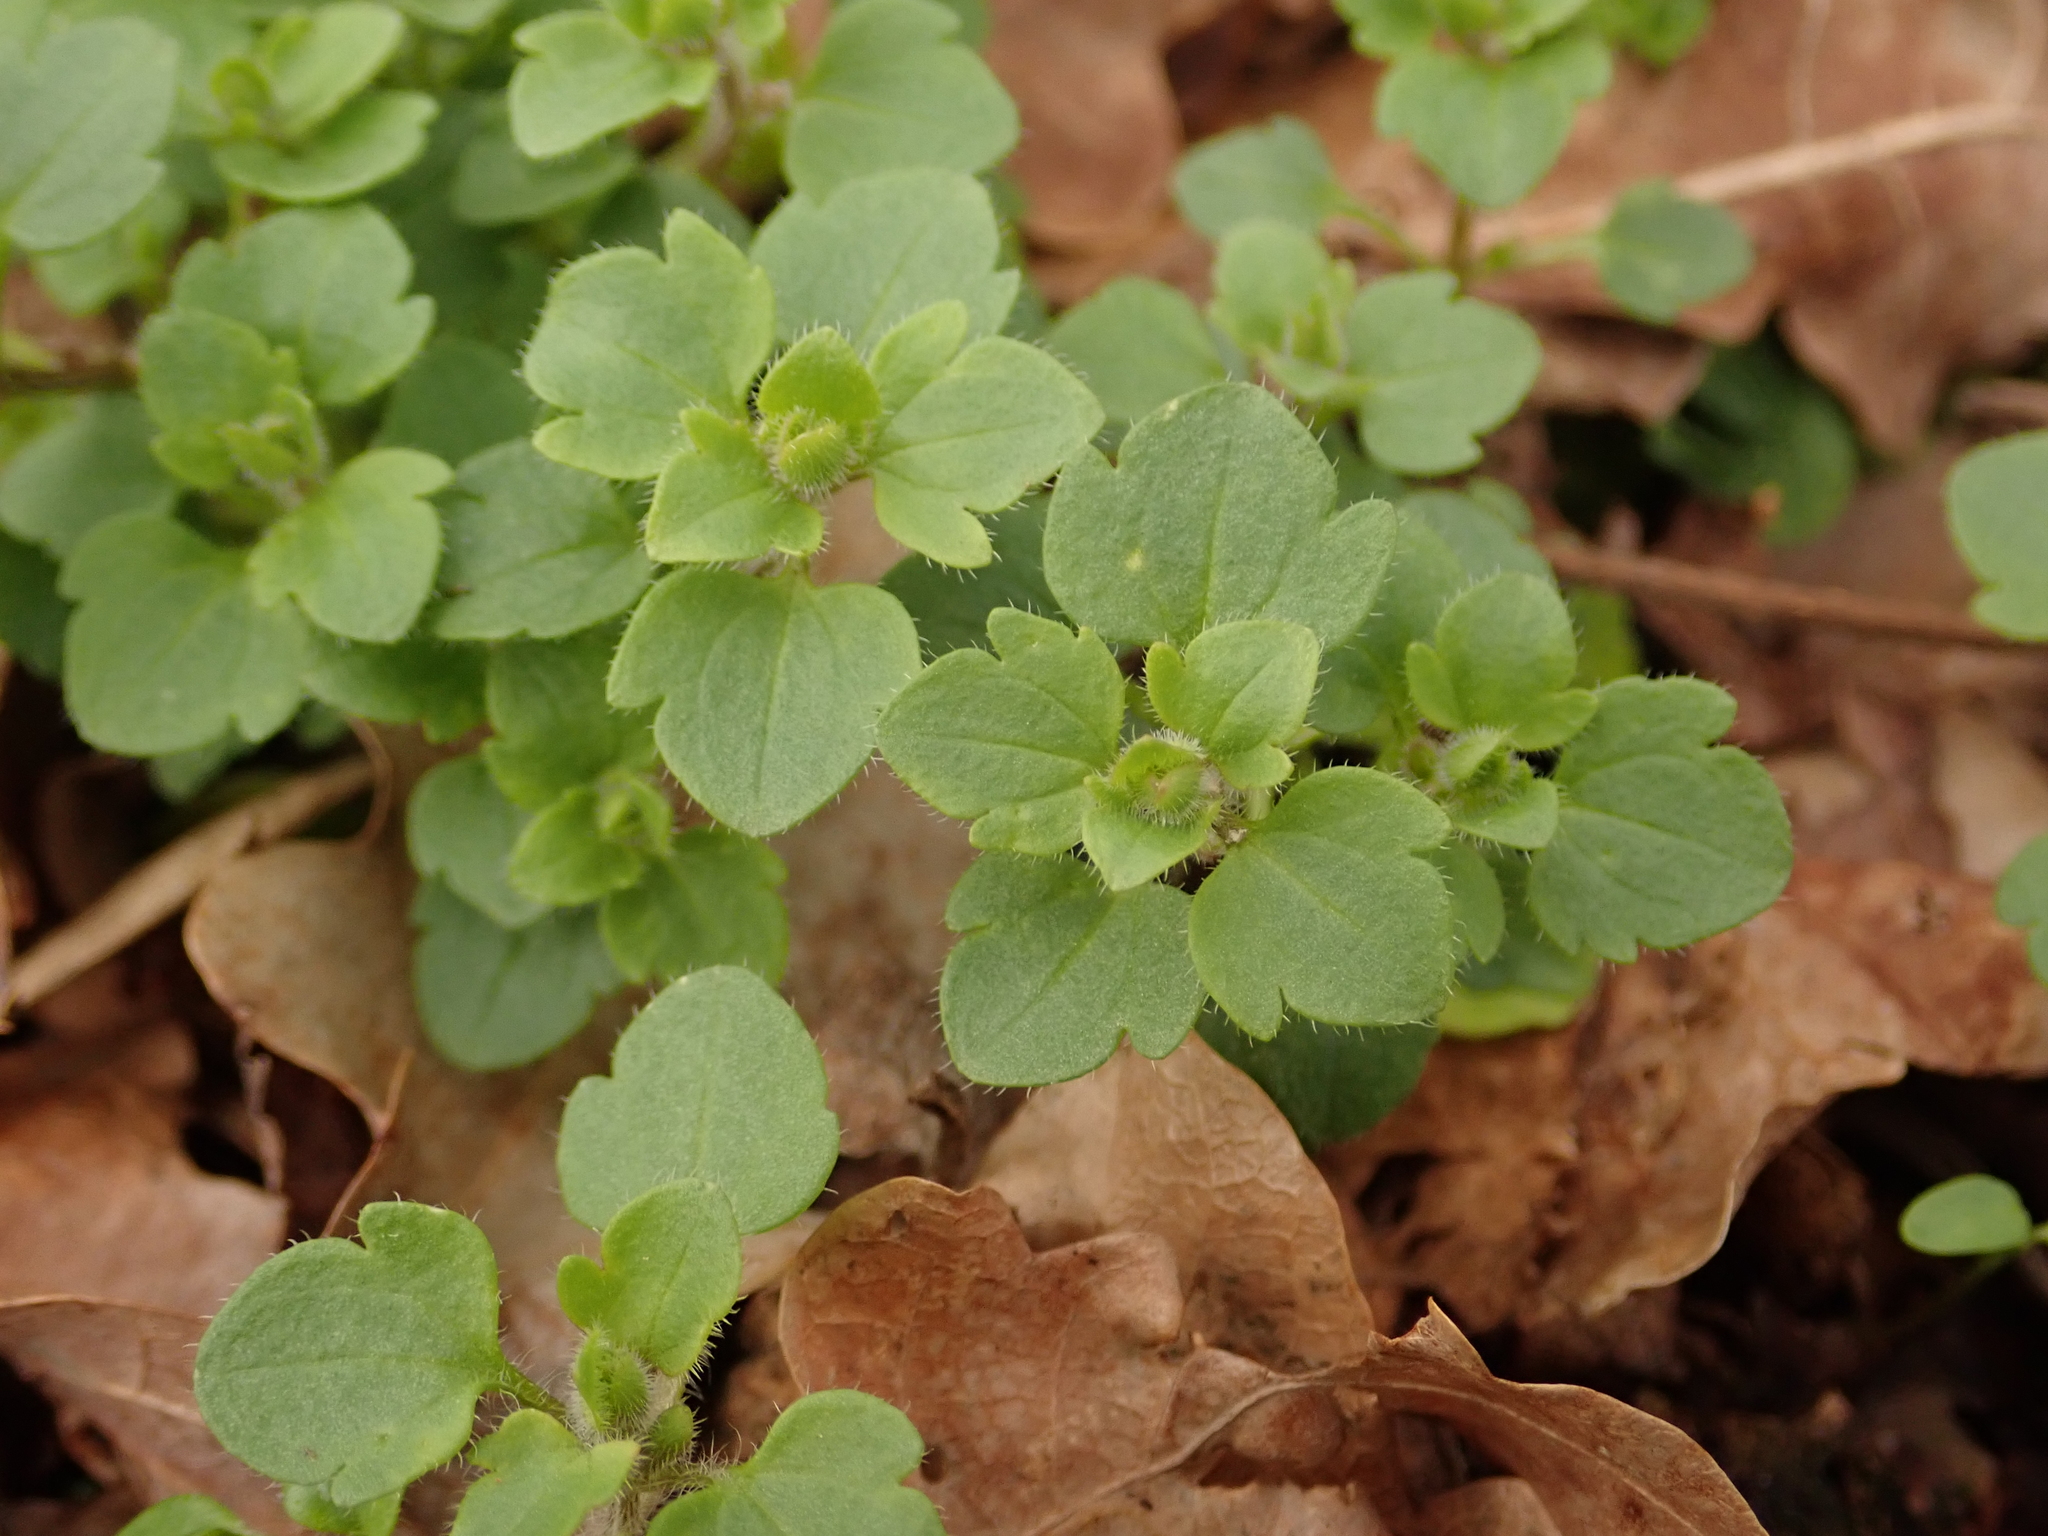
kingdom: Plantae
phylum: Tracheophyta
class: Magnoliopsida
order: Lamiales
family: Plantaginaceae
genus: Veronica
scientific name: Veronica hederifolia
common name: Ivy-leaved speedwell
